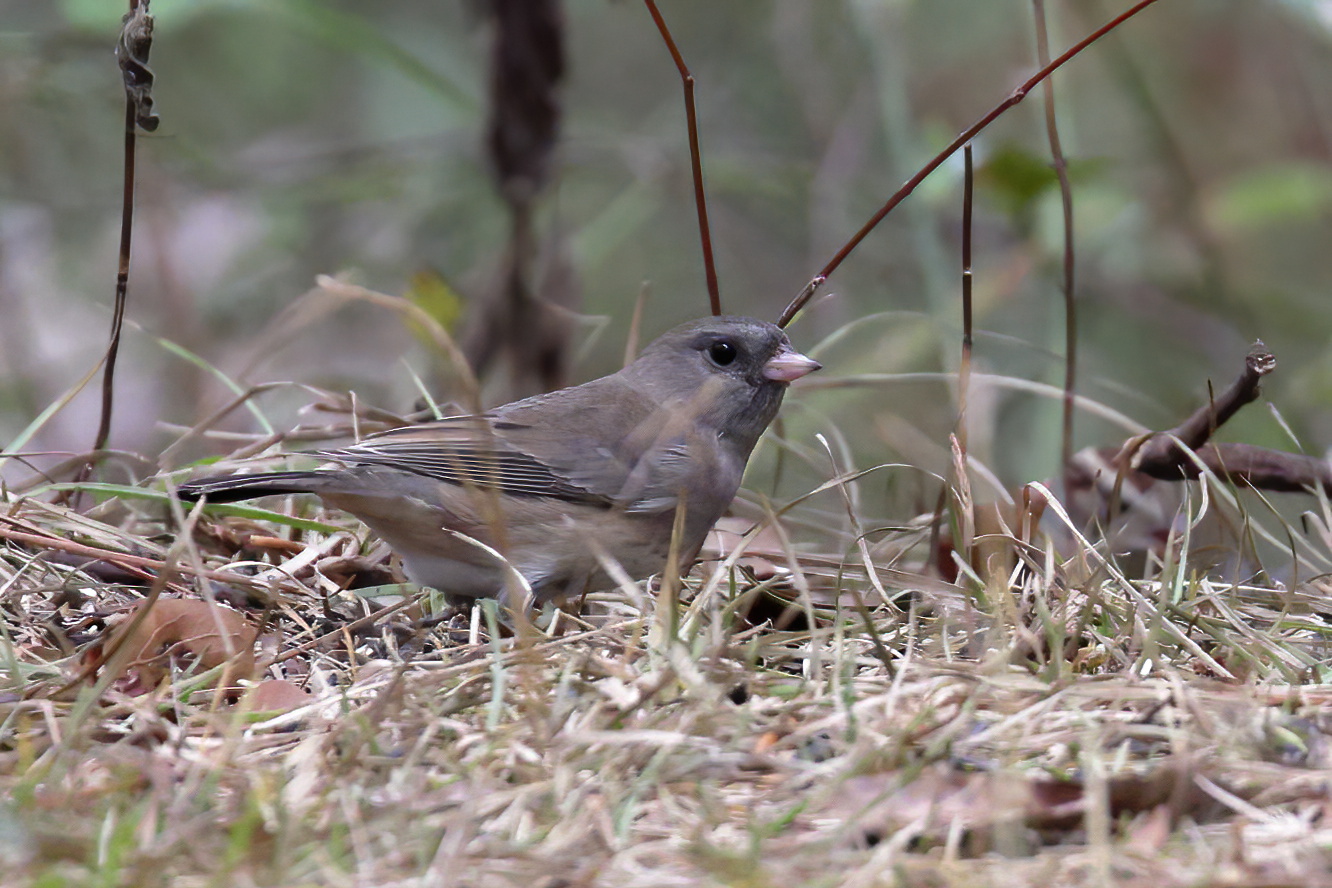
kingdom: Animalia
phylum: Chordata
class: Aves
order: Passeriformes
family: Passerellidae
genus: Junco
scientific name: Junco hyemalis
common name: Dark-eyed junco
